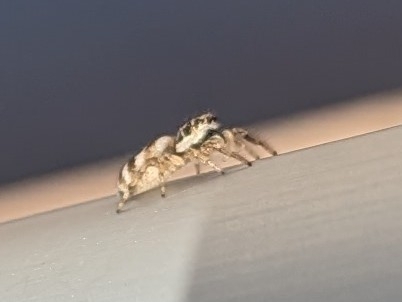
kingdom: Animalia
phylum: Arthropoda
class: Arachnida
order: Araneae
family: Salticidae
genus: Salticus
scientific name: Salticus scenicus
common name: Zebra jumper
